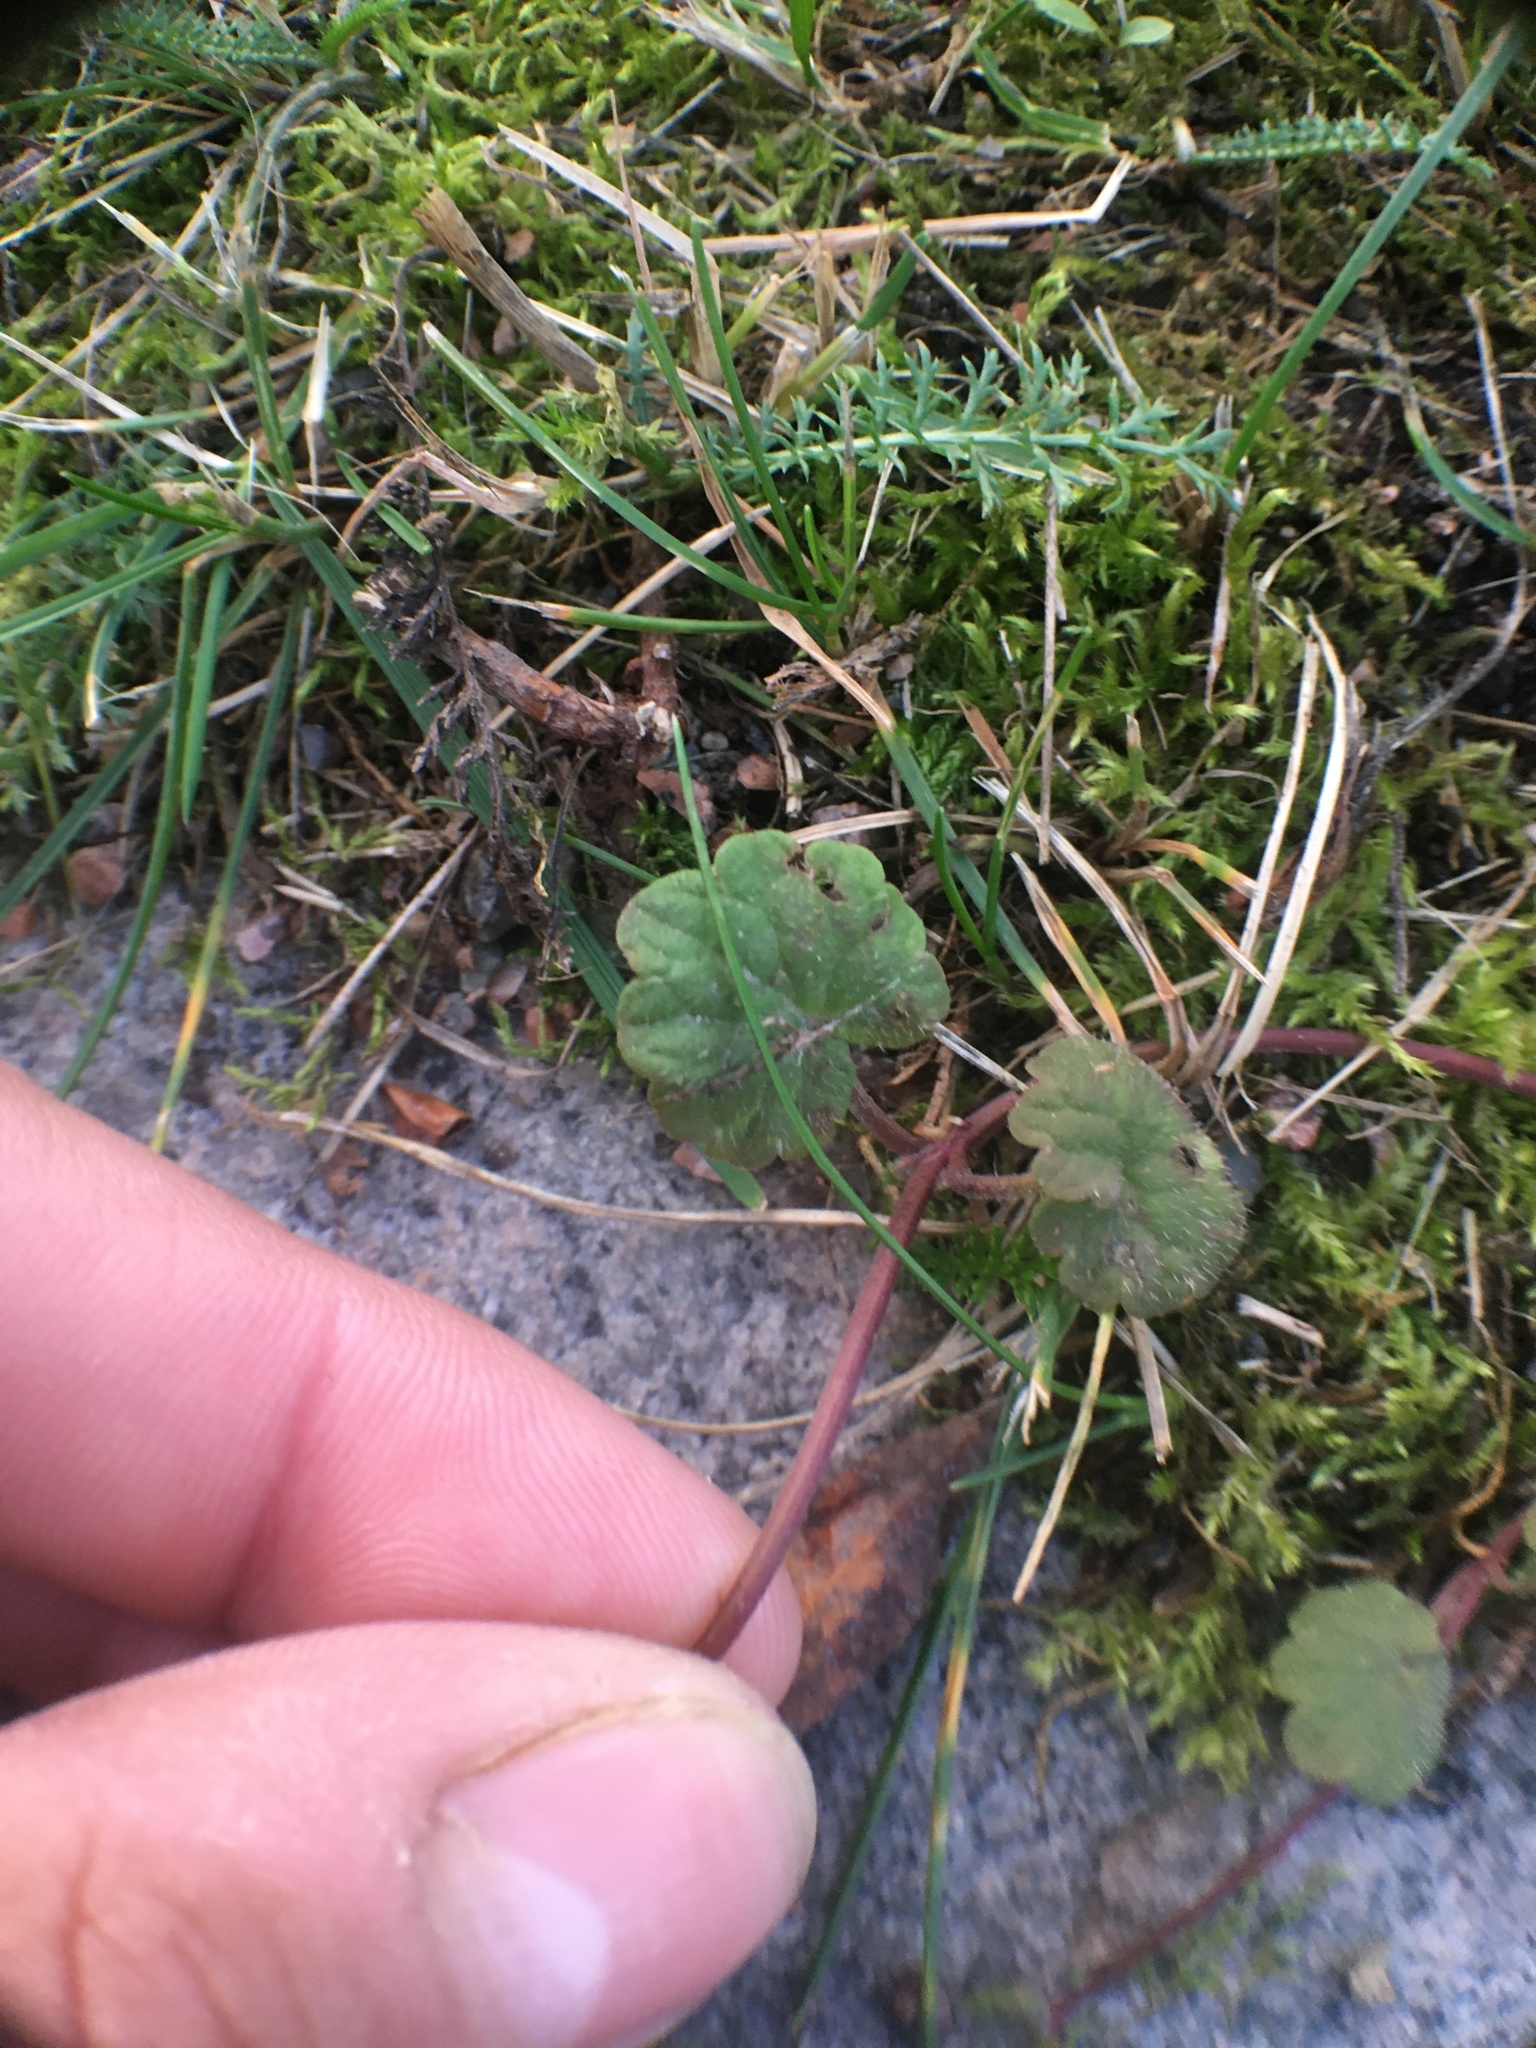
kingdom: Plantae
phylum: Tracheophyta
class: Magnoliopsida
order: Lamiales
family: Lamiaceae
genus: Glechoma
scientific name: Glechoma hederacea
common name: Ground ivy
